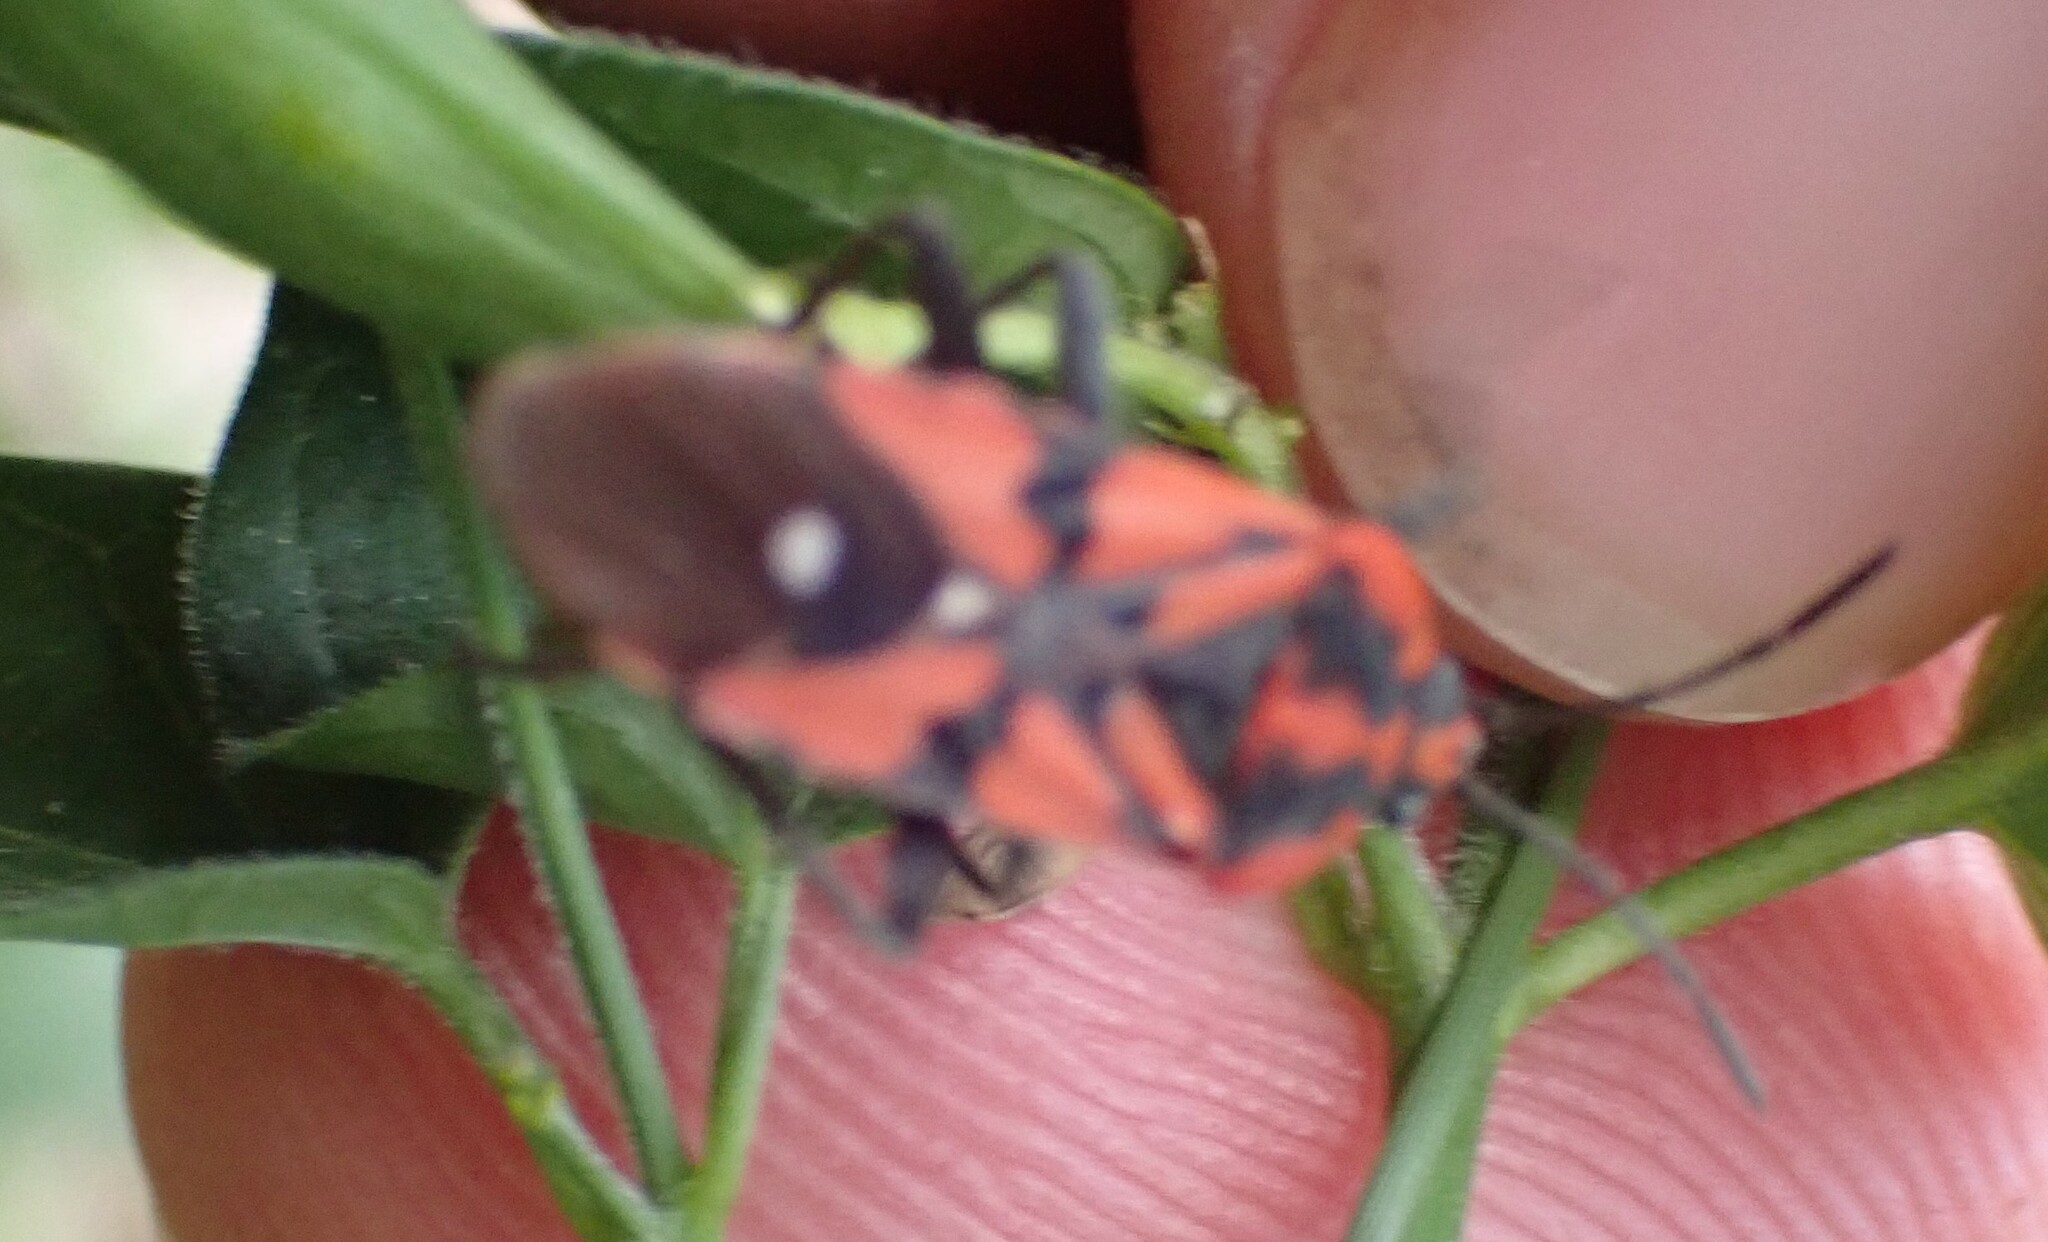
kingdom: Animalia
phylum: Arthropoda
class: Insecta
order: Hemiptera
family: Lygaeidae
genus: Spilostethus
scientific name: Spilostethus pandurus
